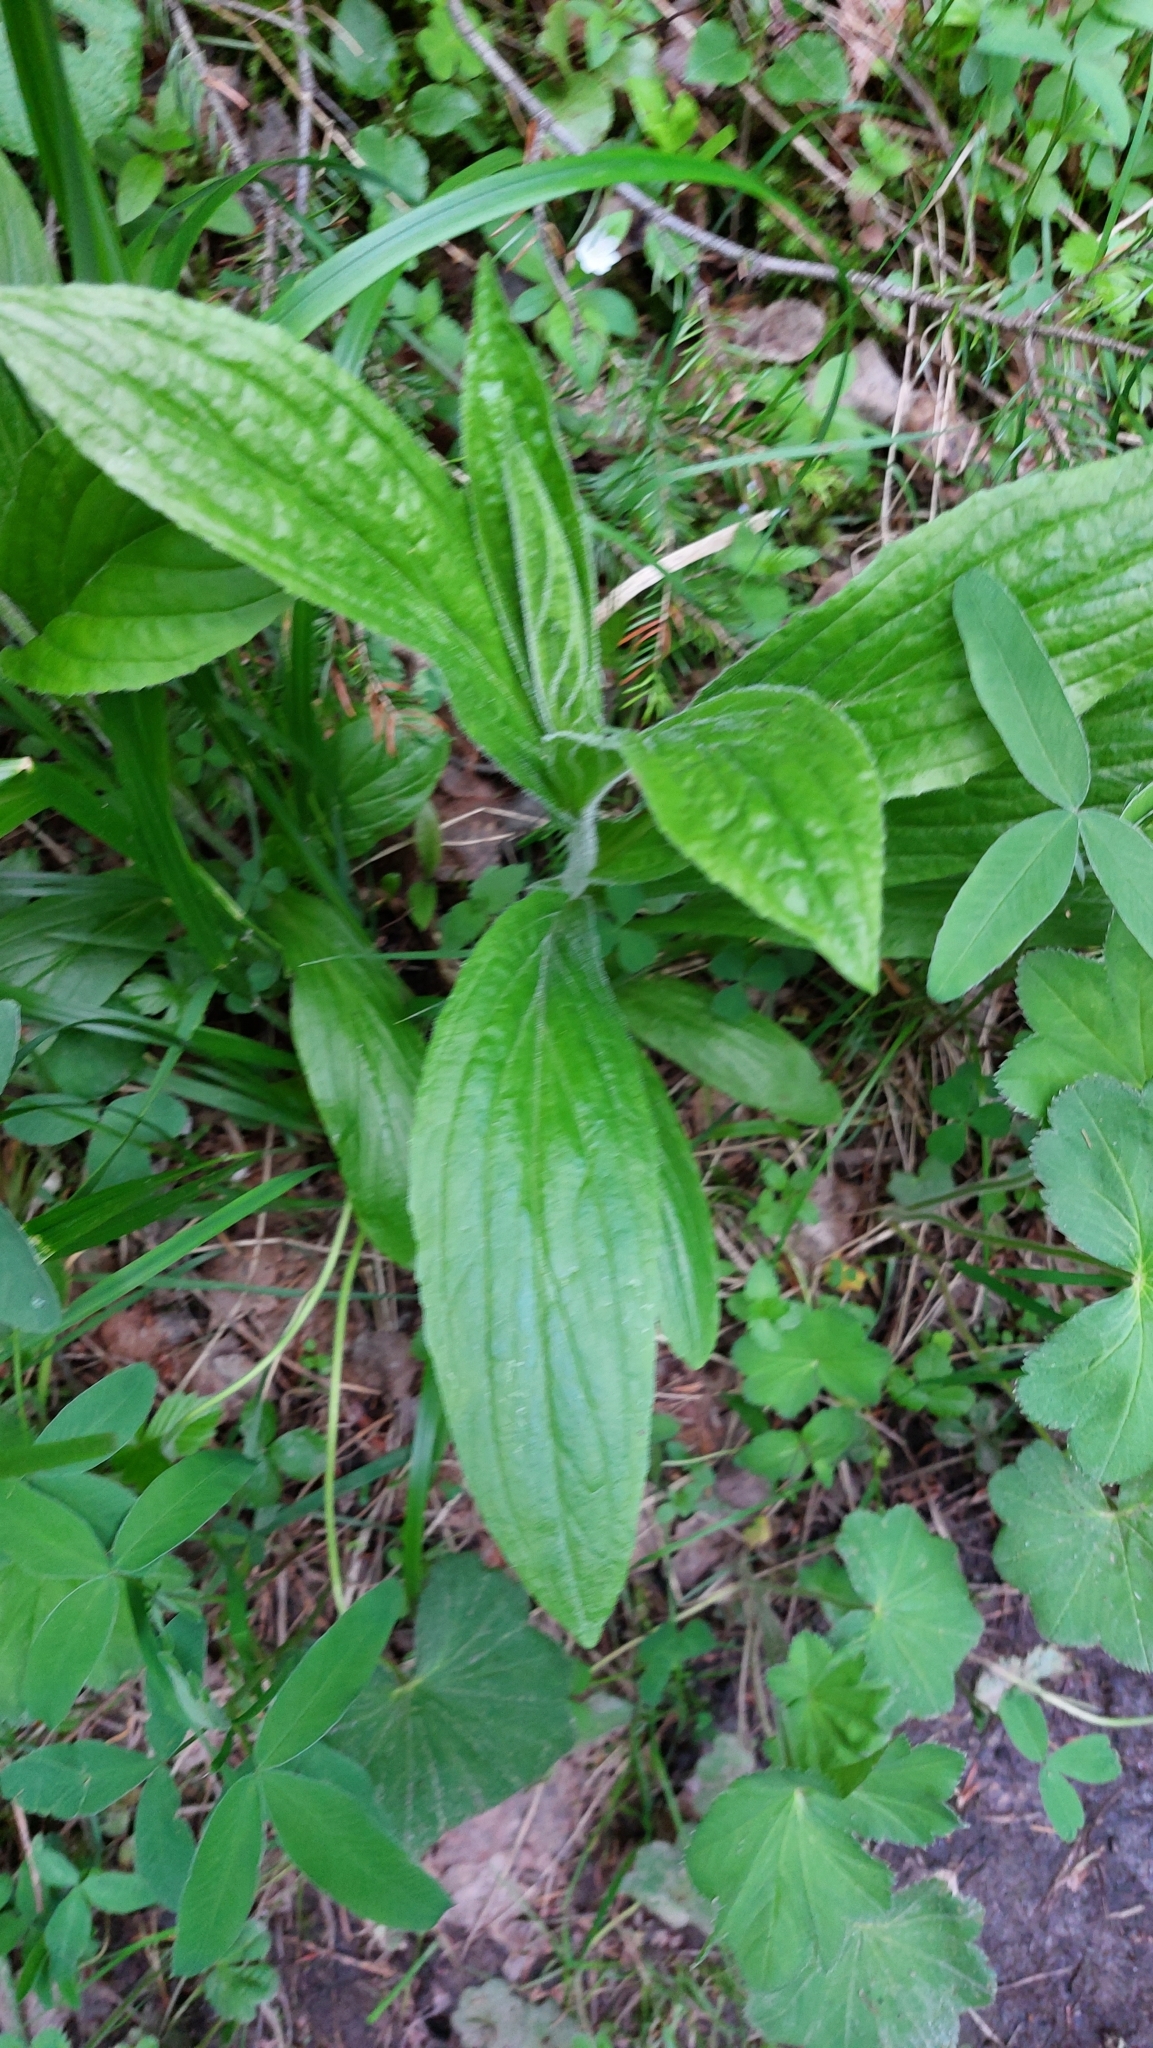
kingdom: Plantae
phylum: Tracheophyta
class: Magnoliopsida
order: Lamiales
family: Plantaginaceae
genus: Digitalis
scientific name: Digitalis grandiflora
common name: Yellow foxglove
